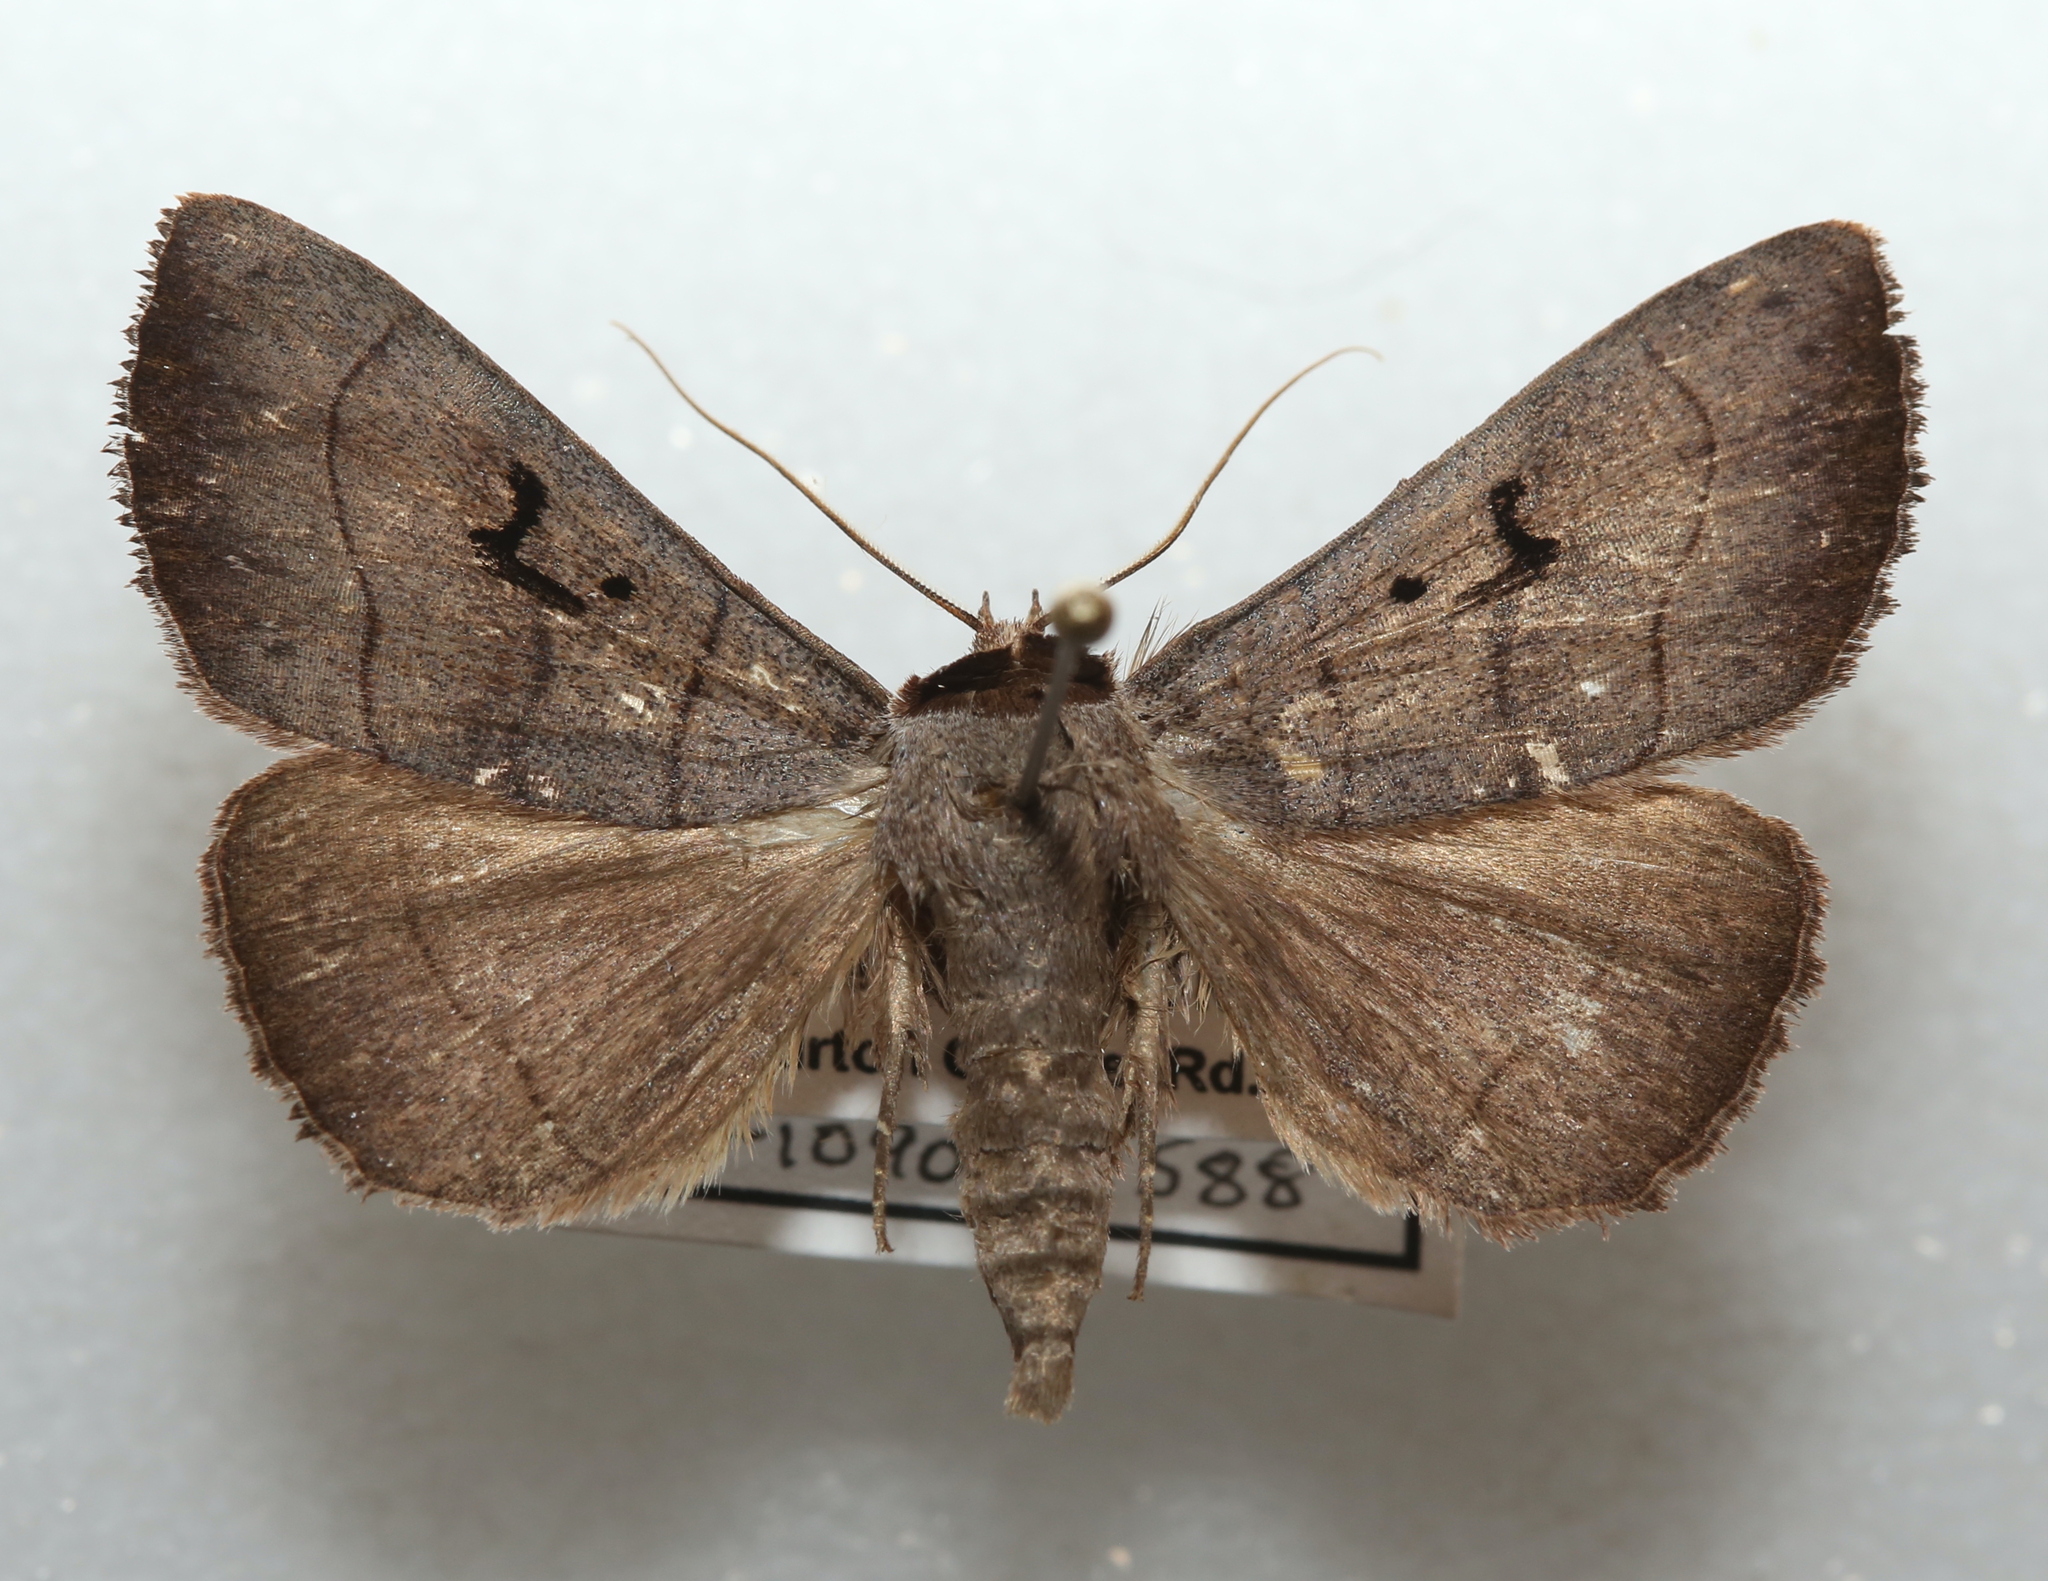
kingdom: Animalia
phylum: Arthropoda
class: Insecta
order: Lepidoptera
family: Erebidae
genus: Panopoda
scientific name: Panopoda carneicosta
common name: Brown panopoda moth
